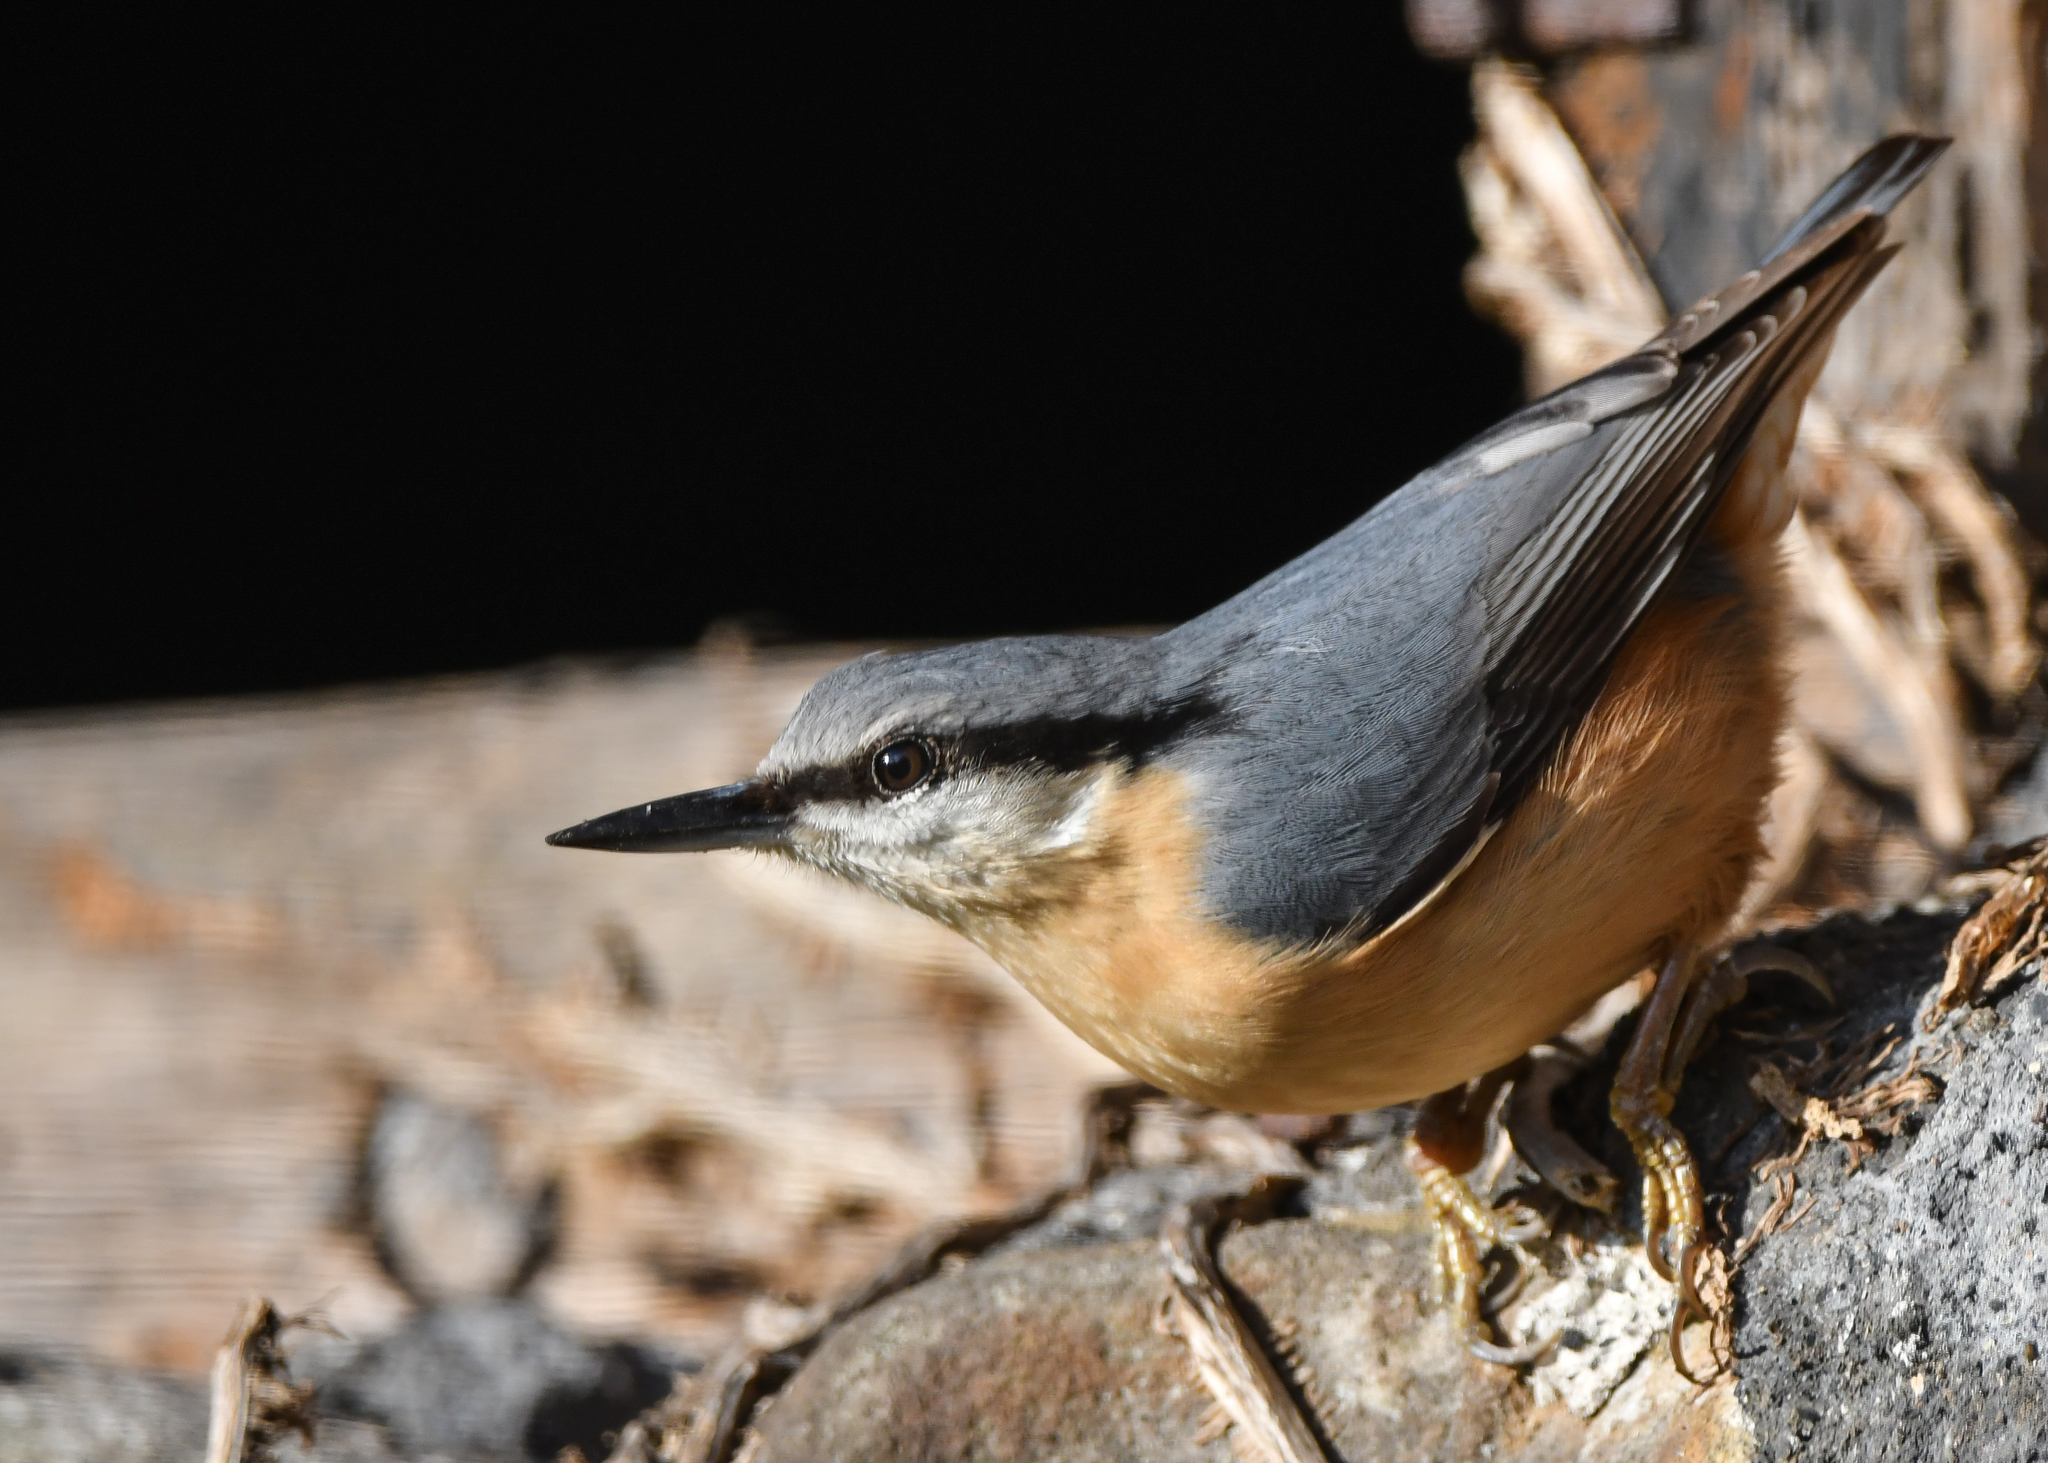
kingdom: Animalia
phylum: Chordata
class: Aves
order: Passeriformes
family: Sittidae
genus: Sitta
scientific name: Sitta europaea
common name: Eurasian nuthatch
